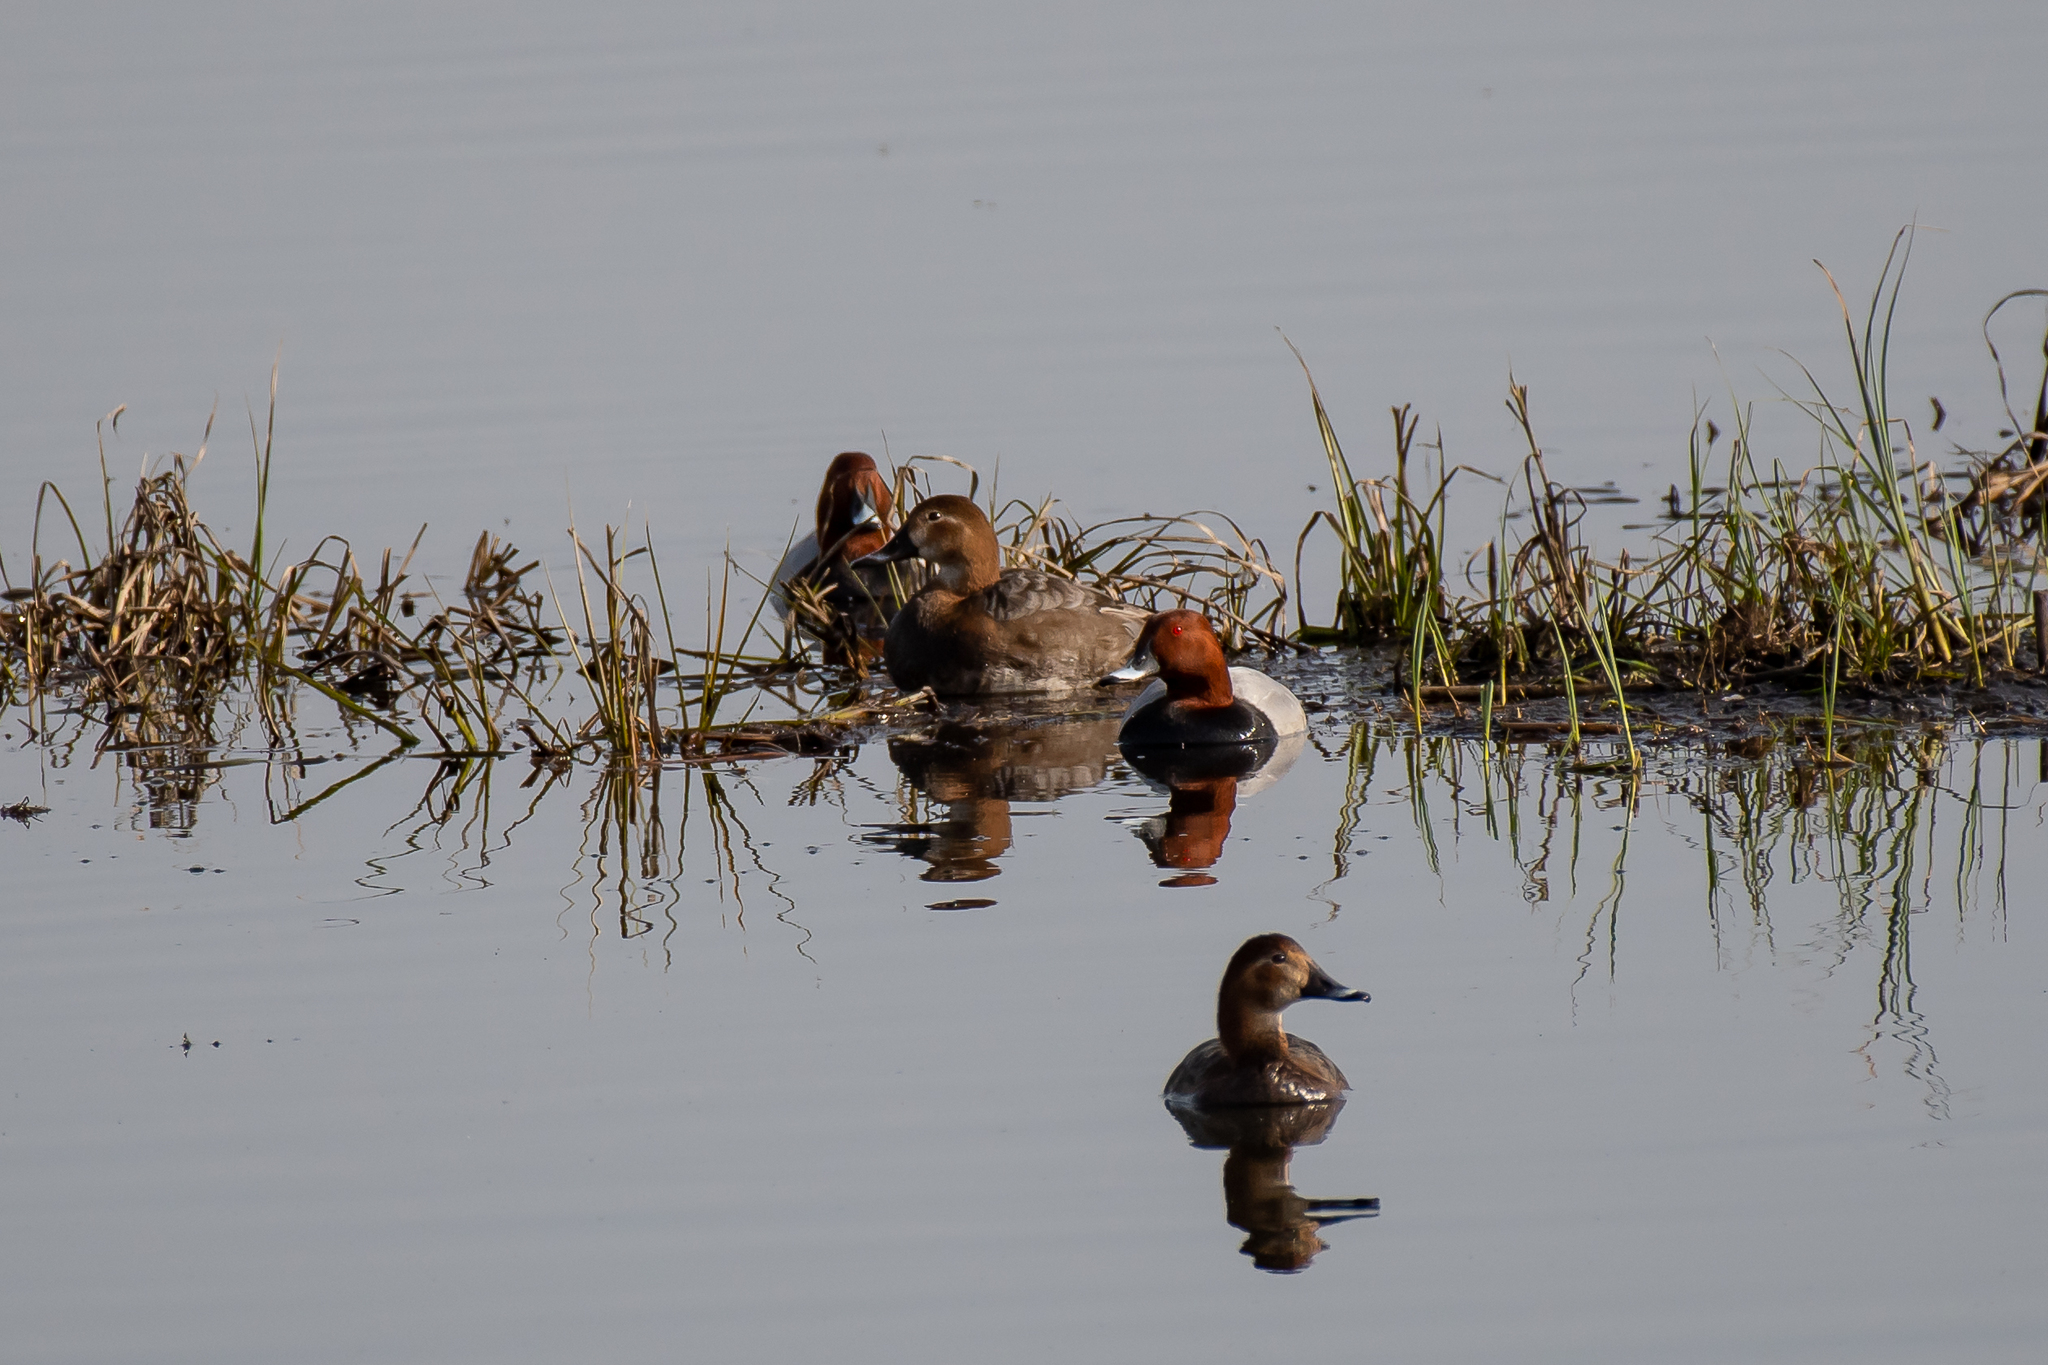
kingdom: Animalia
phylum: Chordata
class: Aves
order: Anseriformes
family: Anatidae
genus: Aythya
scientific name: Aythya ferina
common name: Common pochard
